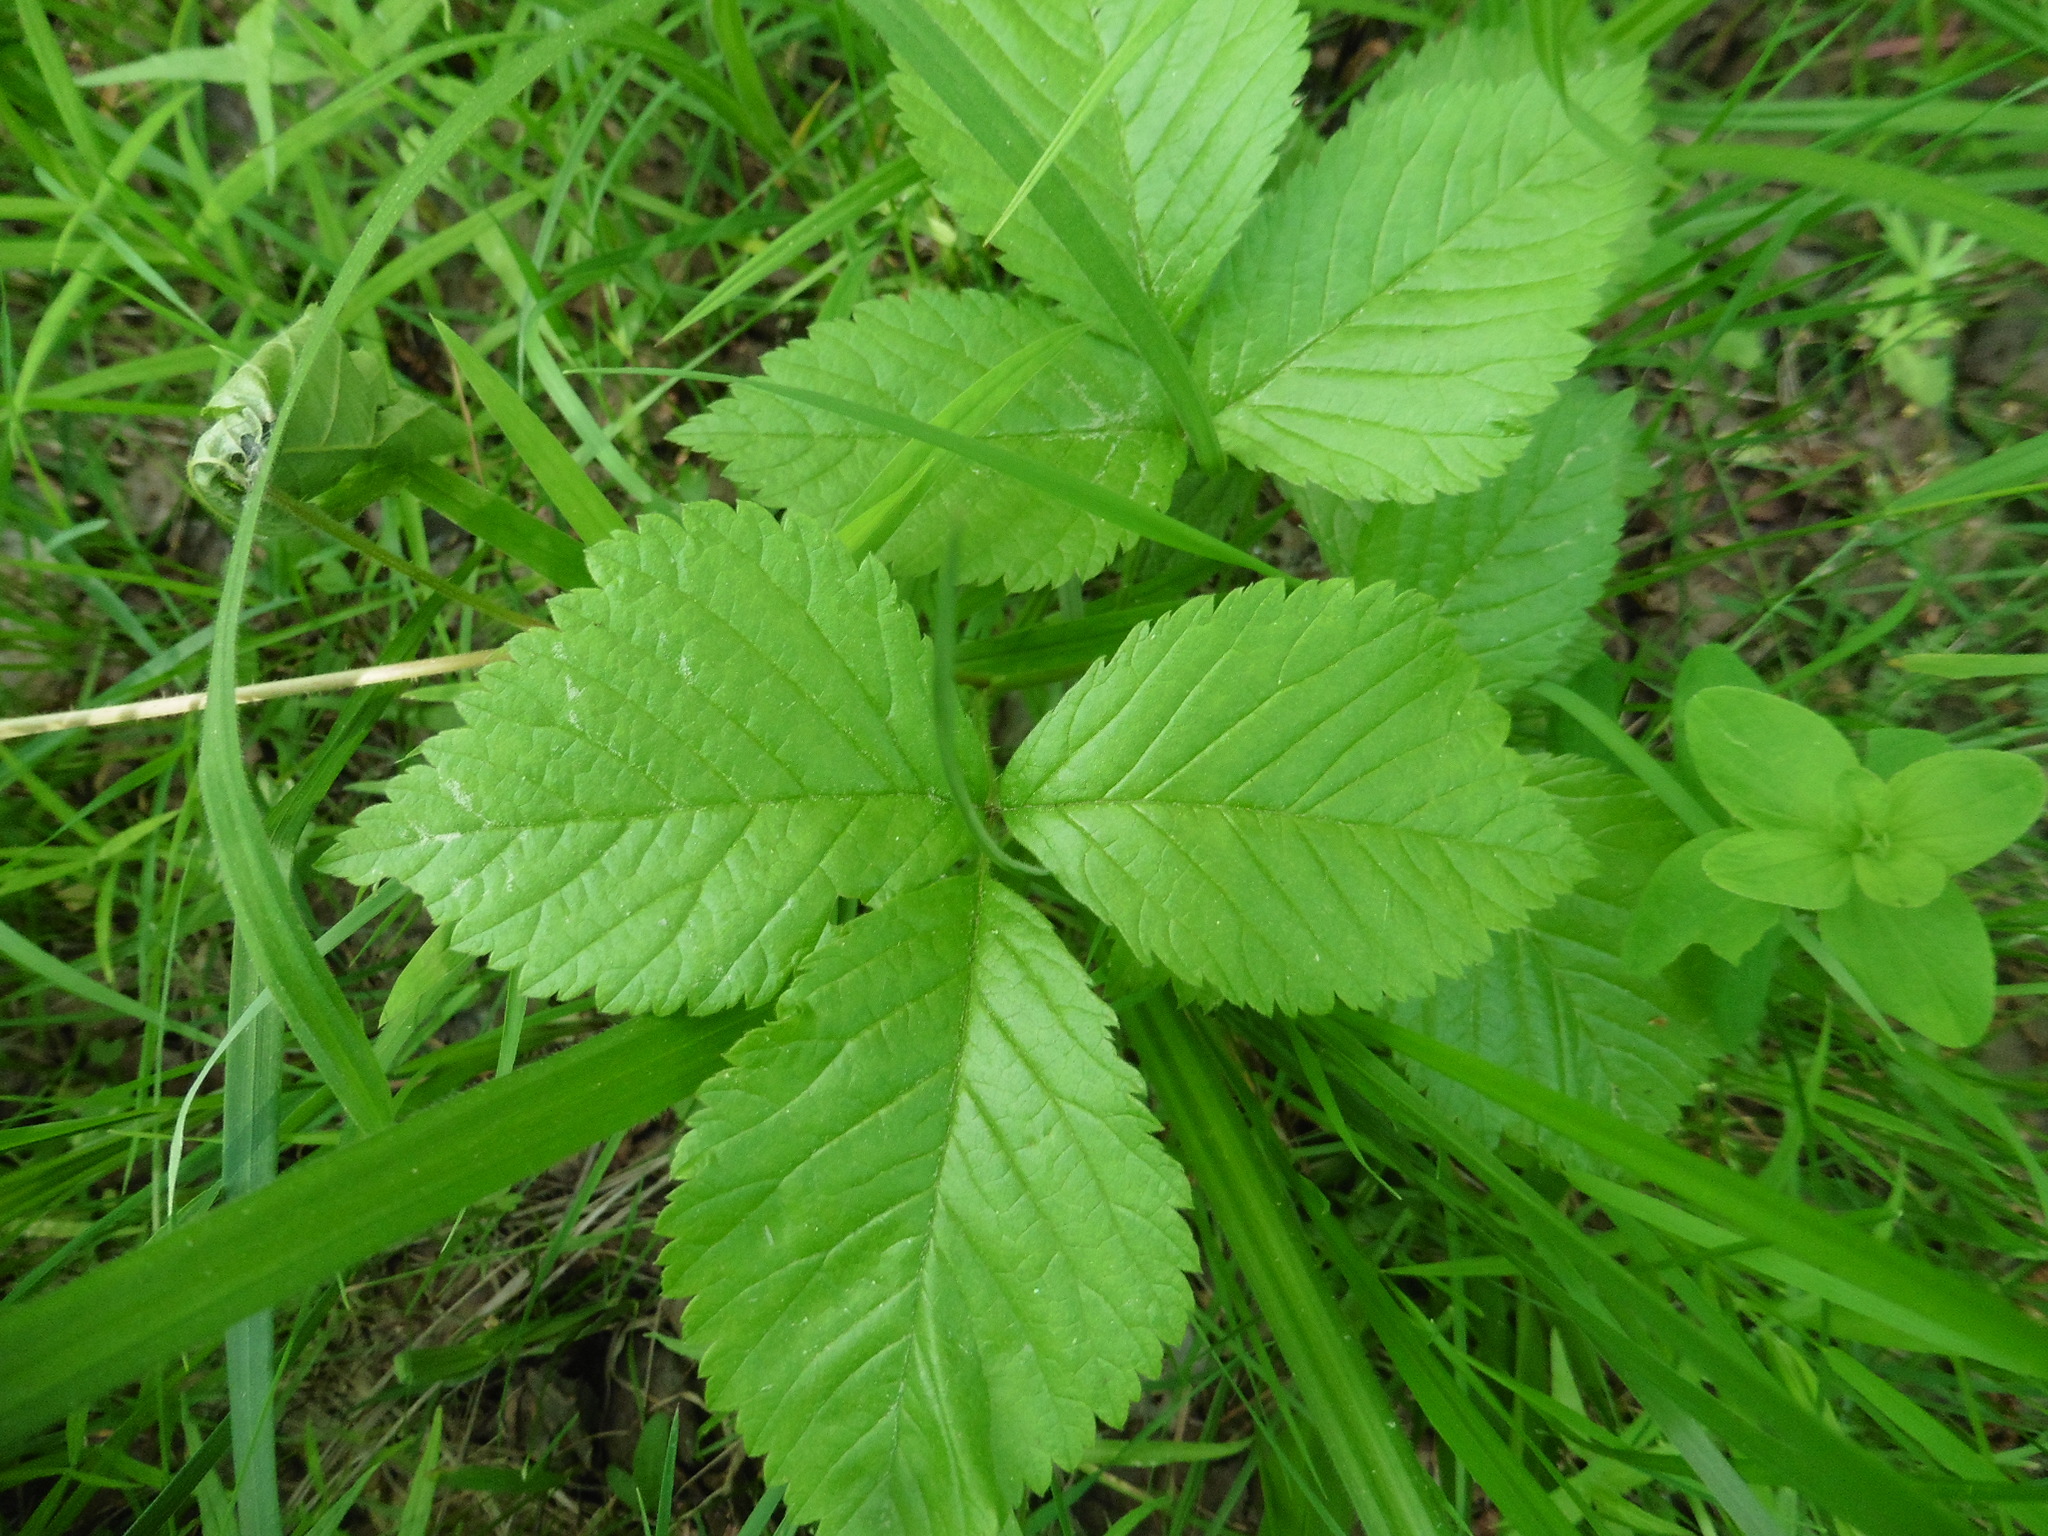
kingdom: Plantae
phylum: Tracheophyta
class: Magnoliopsida
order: Rosales
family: Rosaceae
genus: Rubus
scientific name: Rubus saxatilis
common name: Stone bramble
